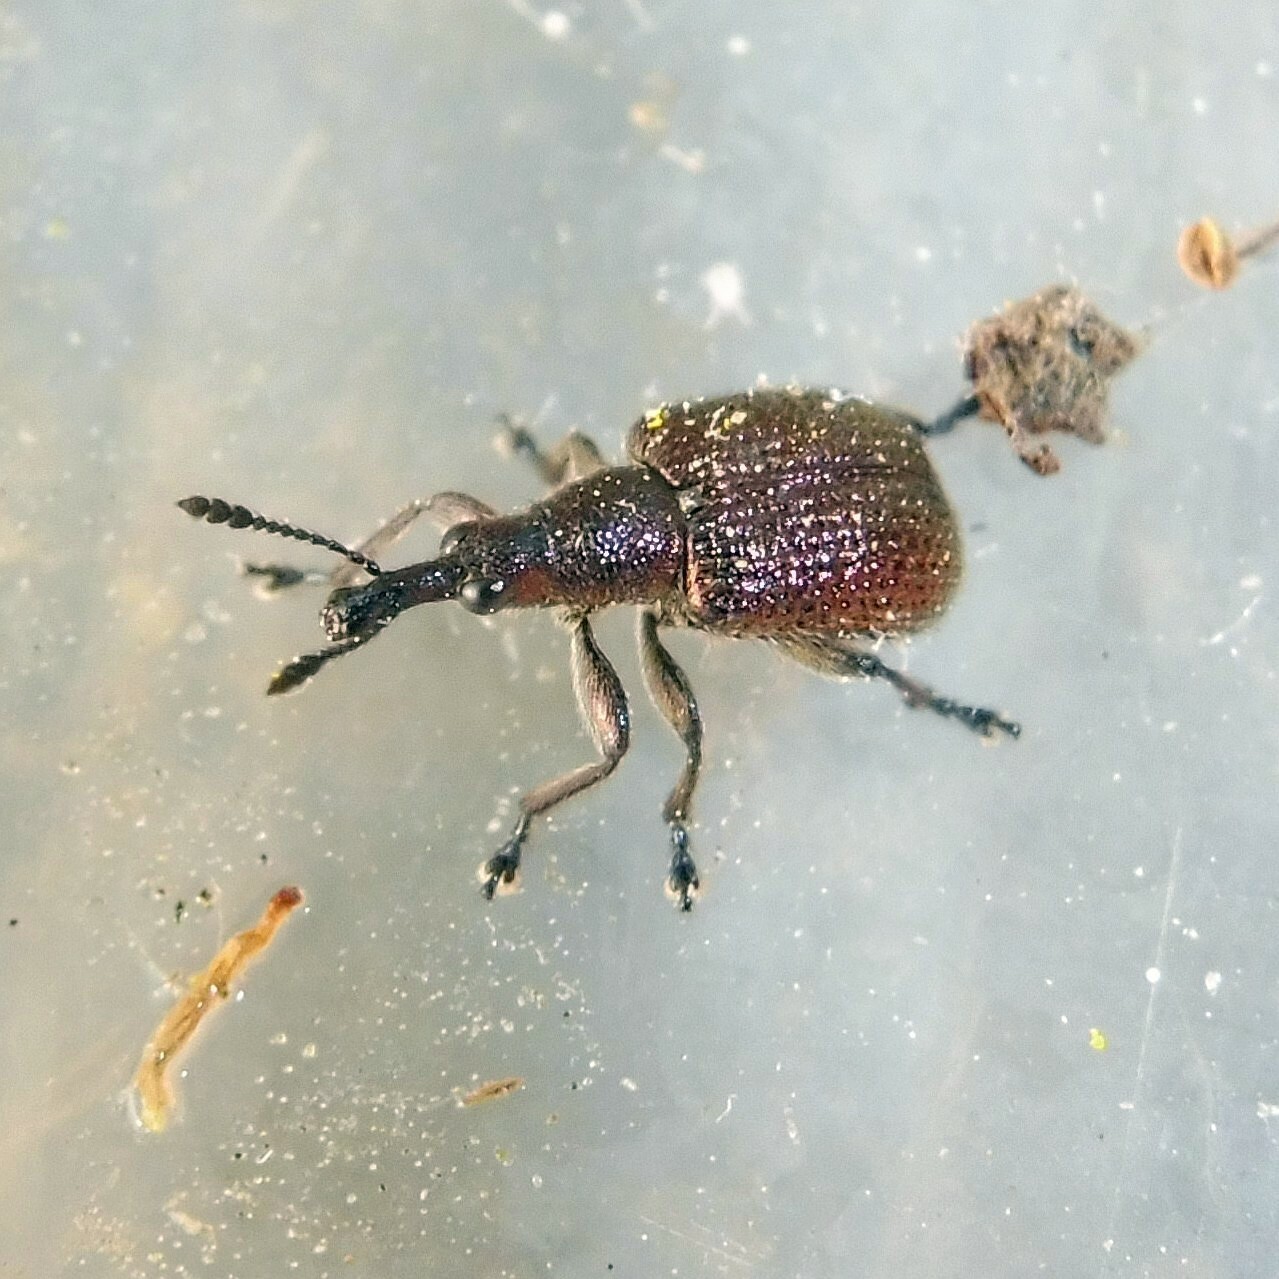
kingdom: Animalia
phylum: Arthropoda
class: Insecta
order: Coleoptera
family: Attelabidae
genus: Involvulus
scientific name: Involvulus cupreus
